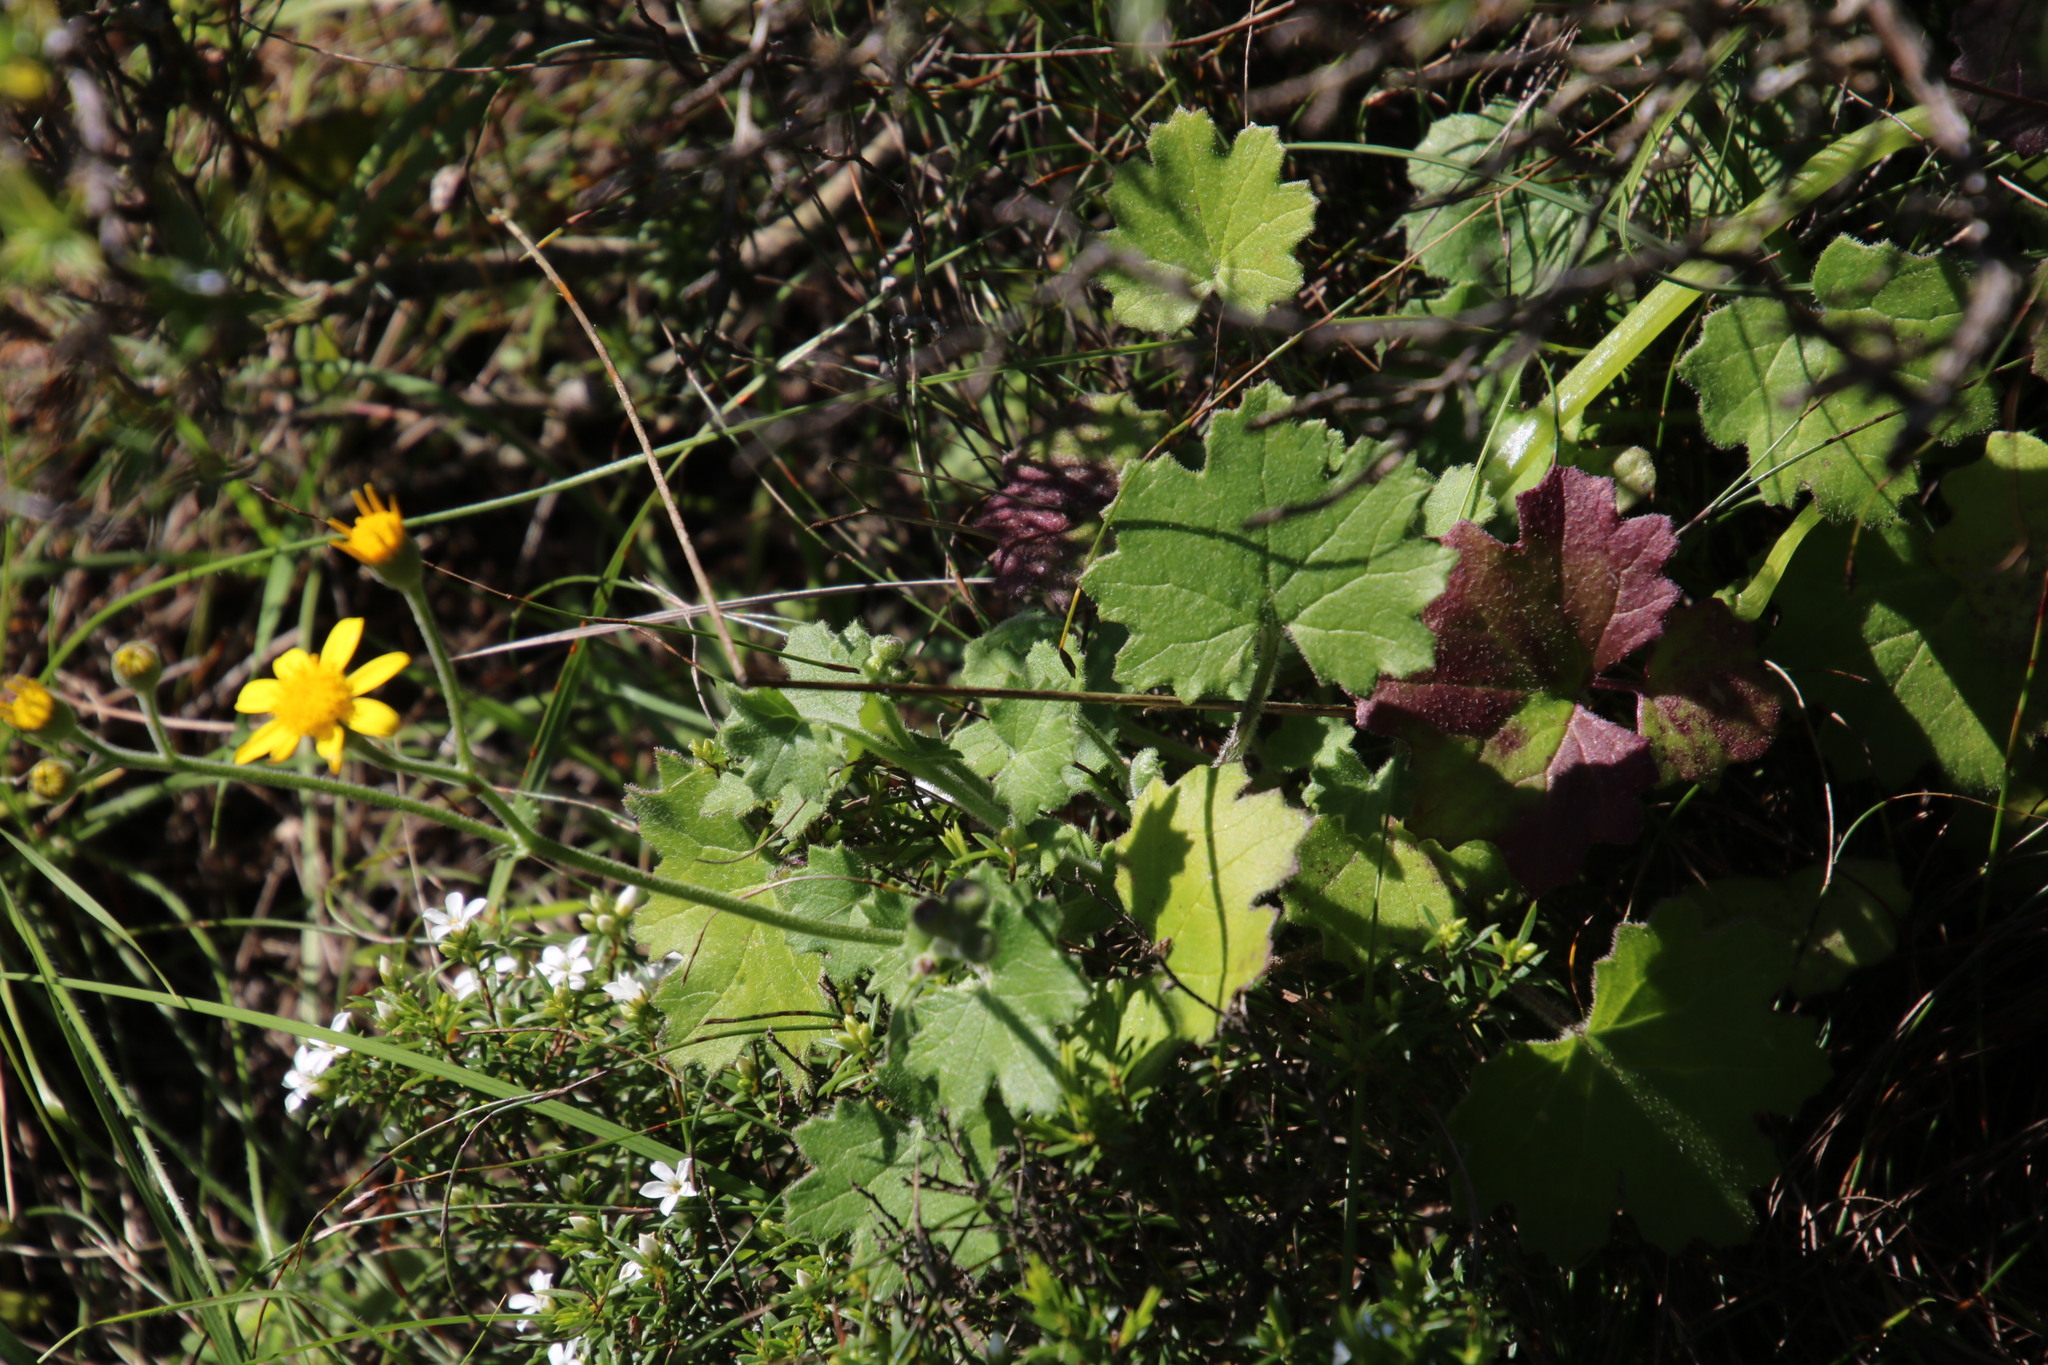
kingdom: Plantae
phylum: Tracheophyta
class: Magnoliopsida
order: Asterales
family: Asteraceae
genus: Cineraria
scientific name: Cineraria geifolia
